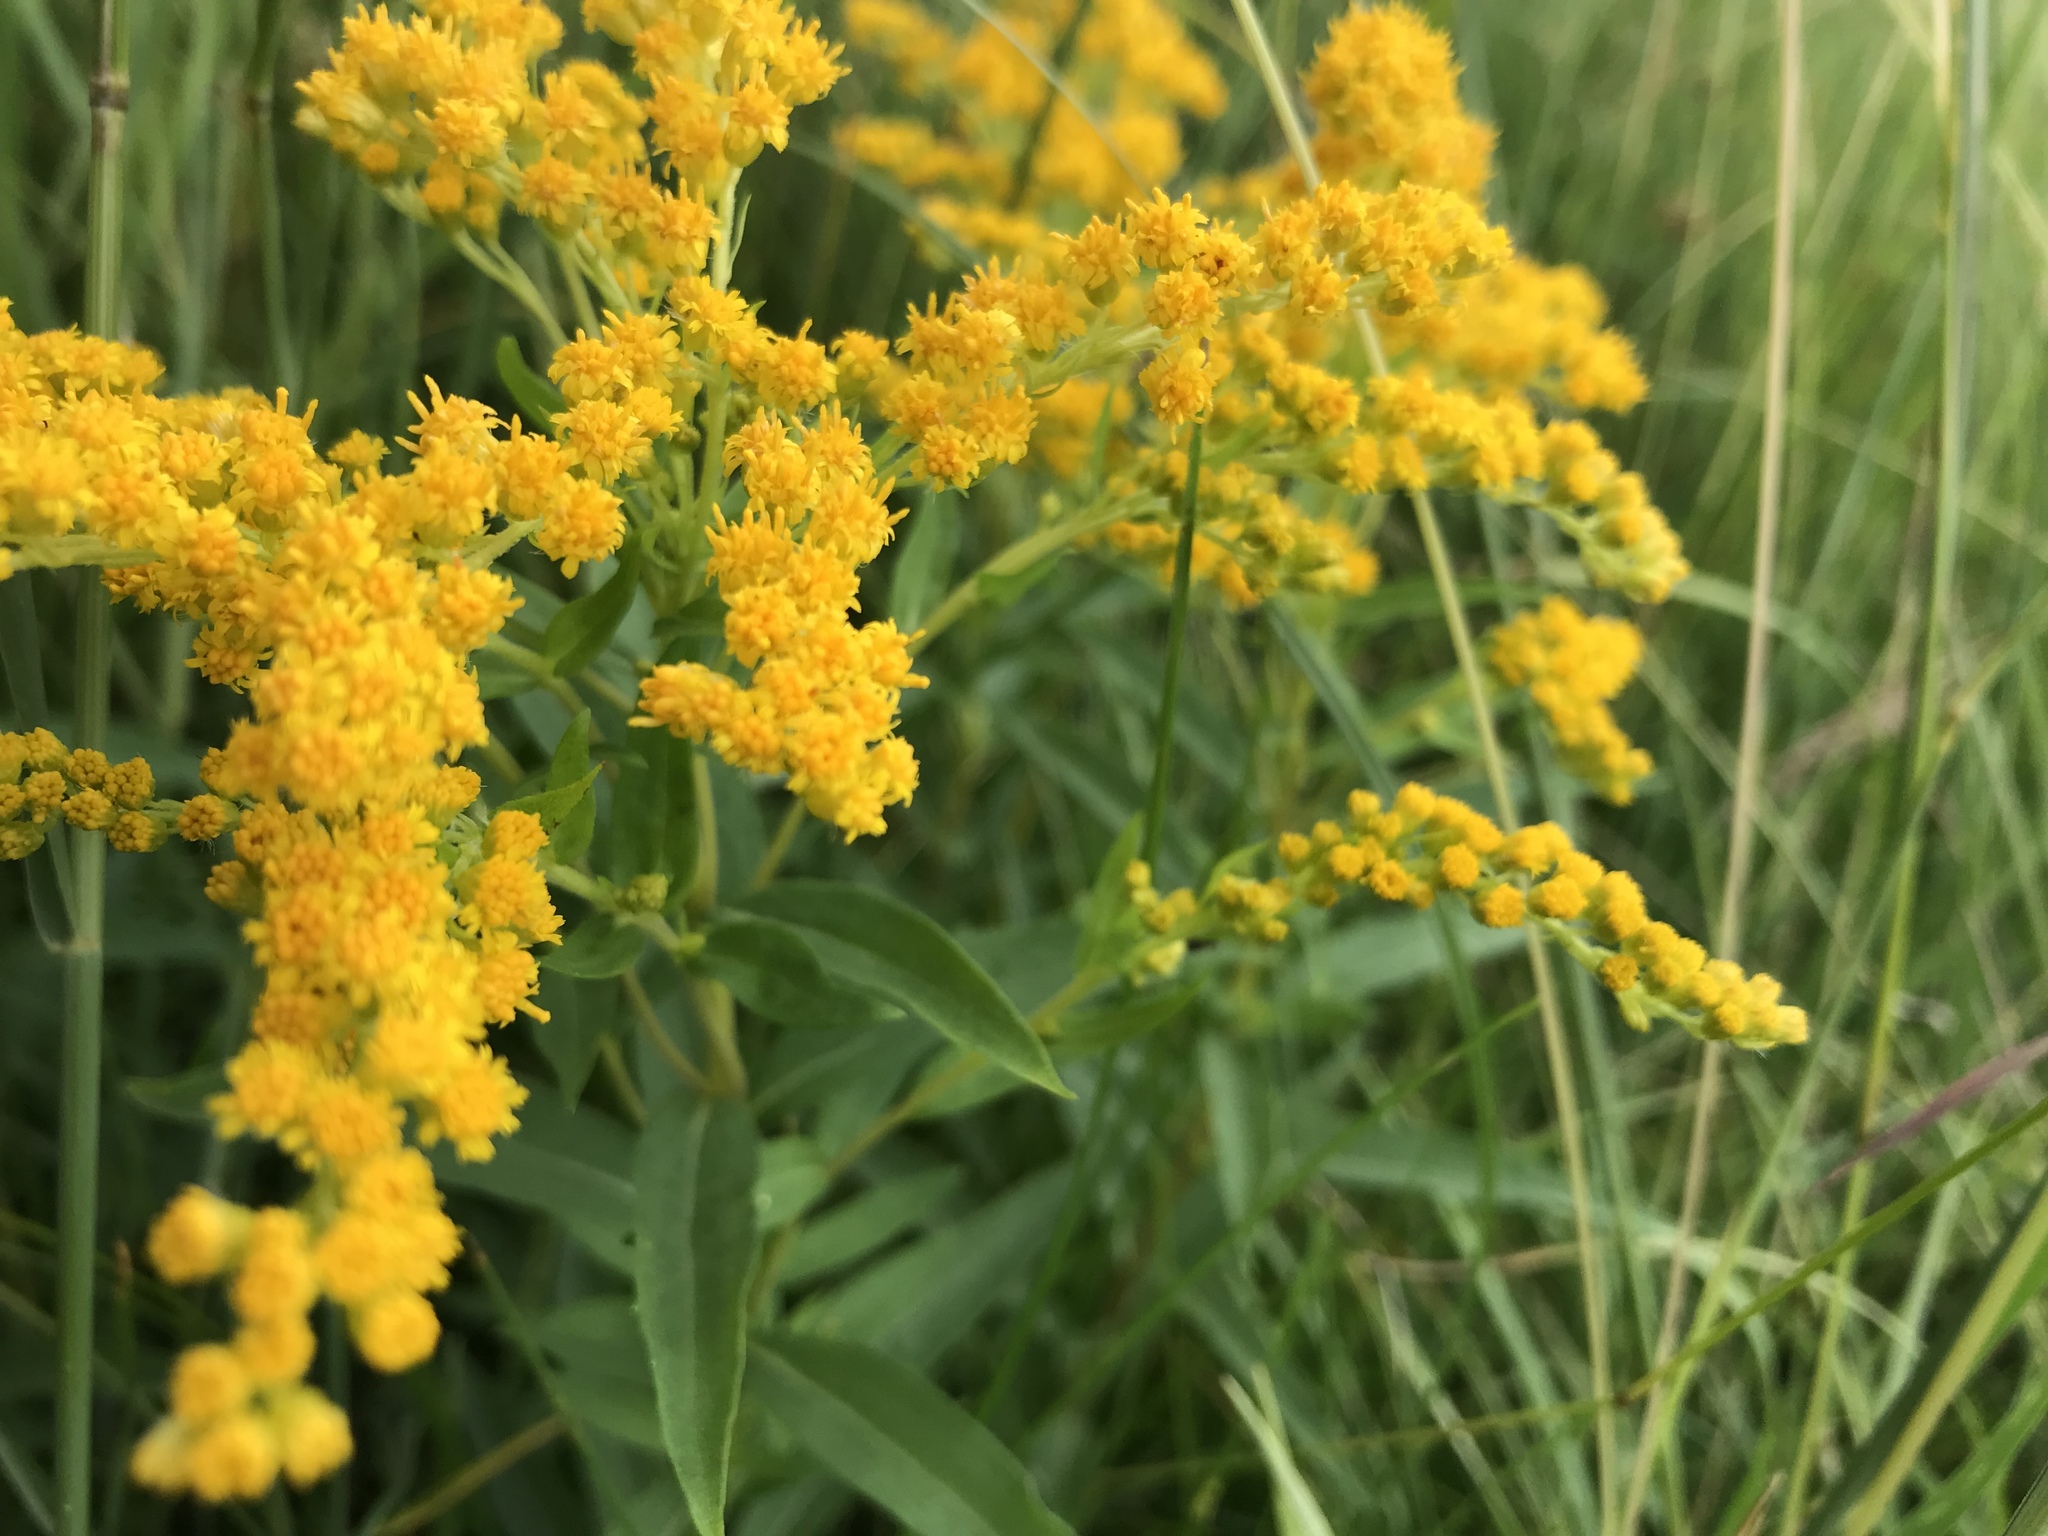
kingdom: Plantae
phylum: Tracheophyta
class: Magnoliopsida
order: Asterales
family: Asteraceae
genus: Solidago
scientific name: Solidago
